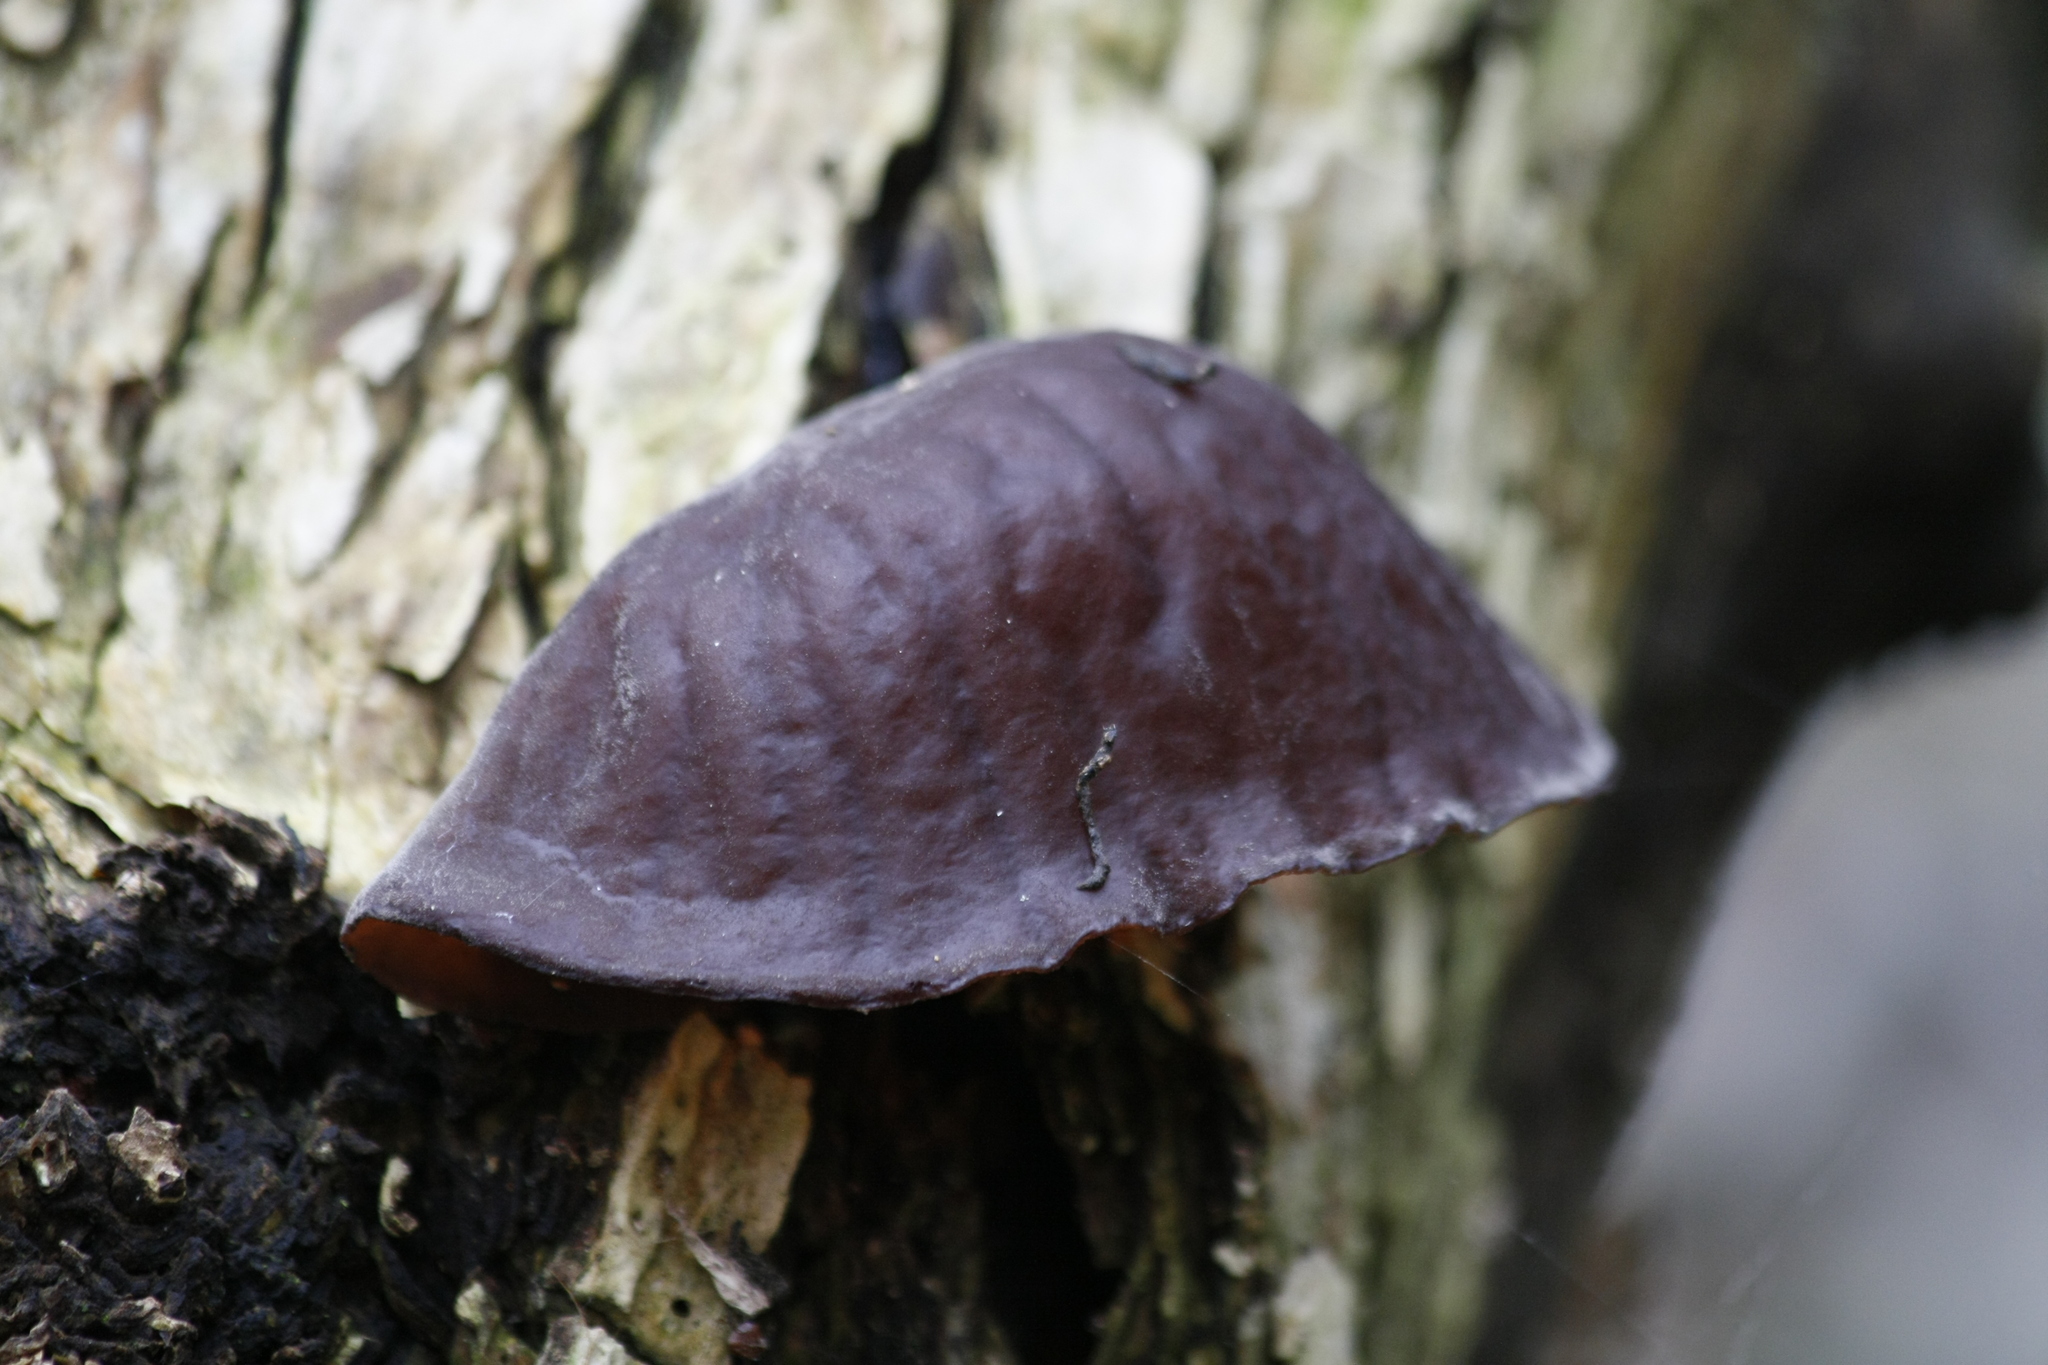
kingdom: Fungi
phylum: Basidiomycota
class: Agaricomycetes
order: Auriculariales
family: Auriculariaceae
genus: Auricularia
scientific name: Auricularia auricula-judae
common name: Jelly ear
